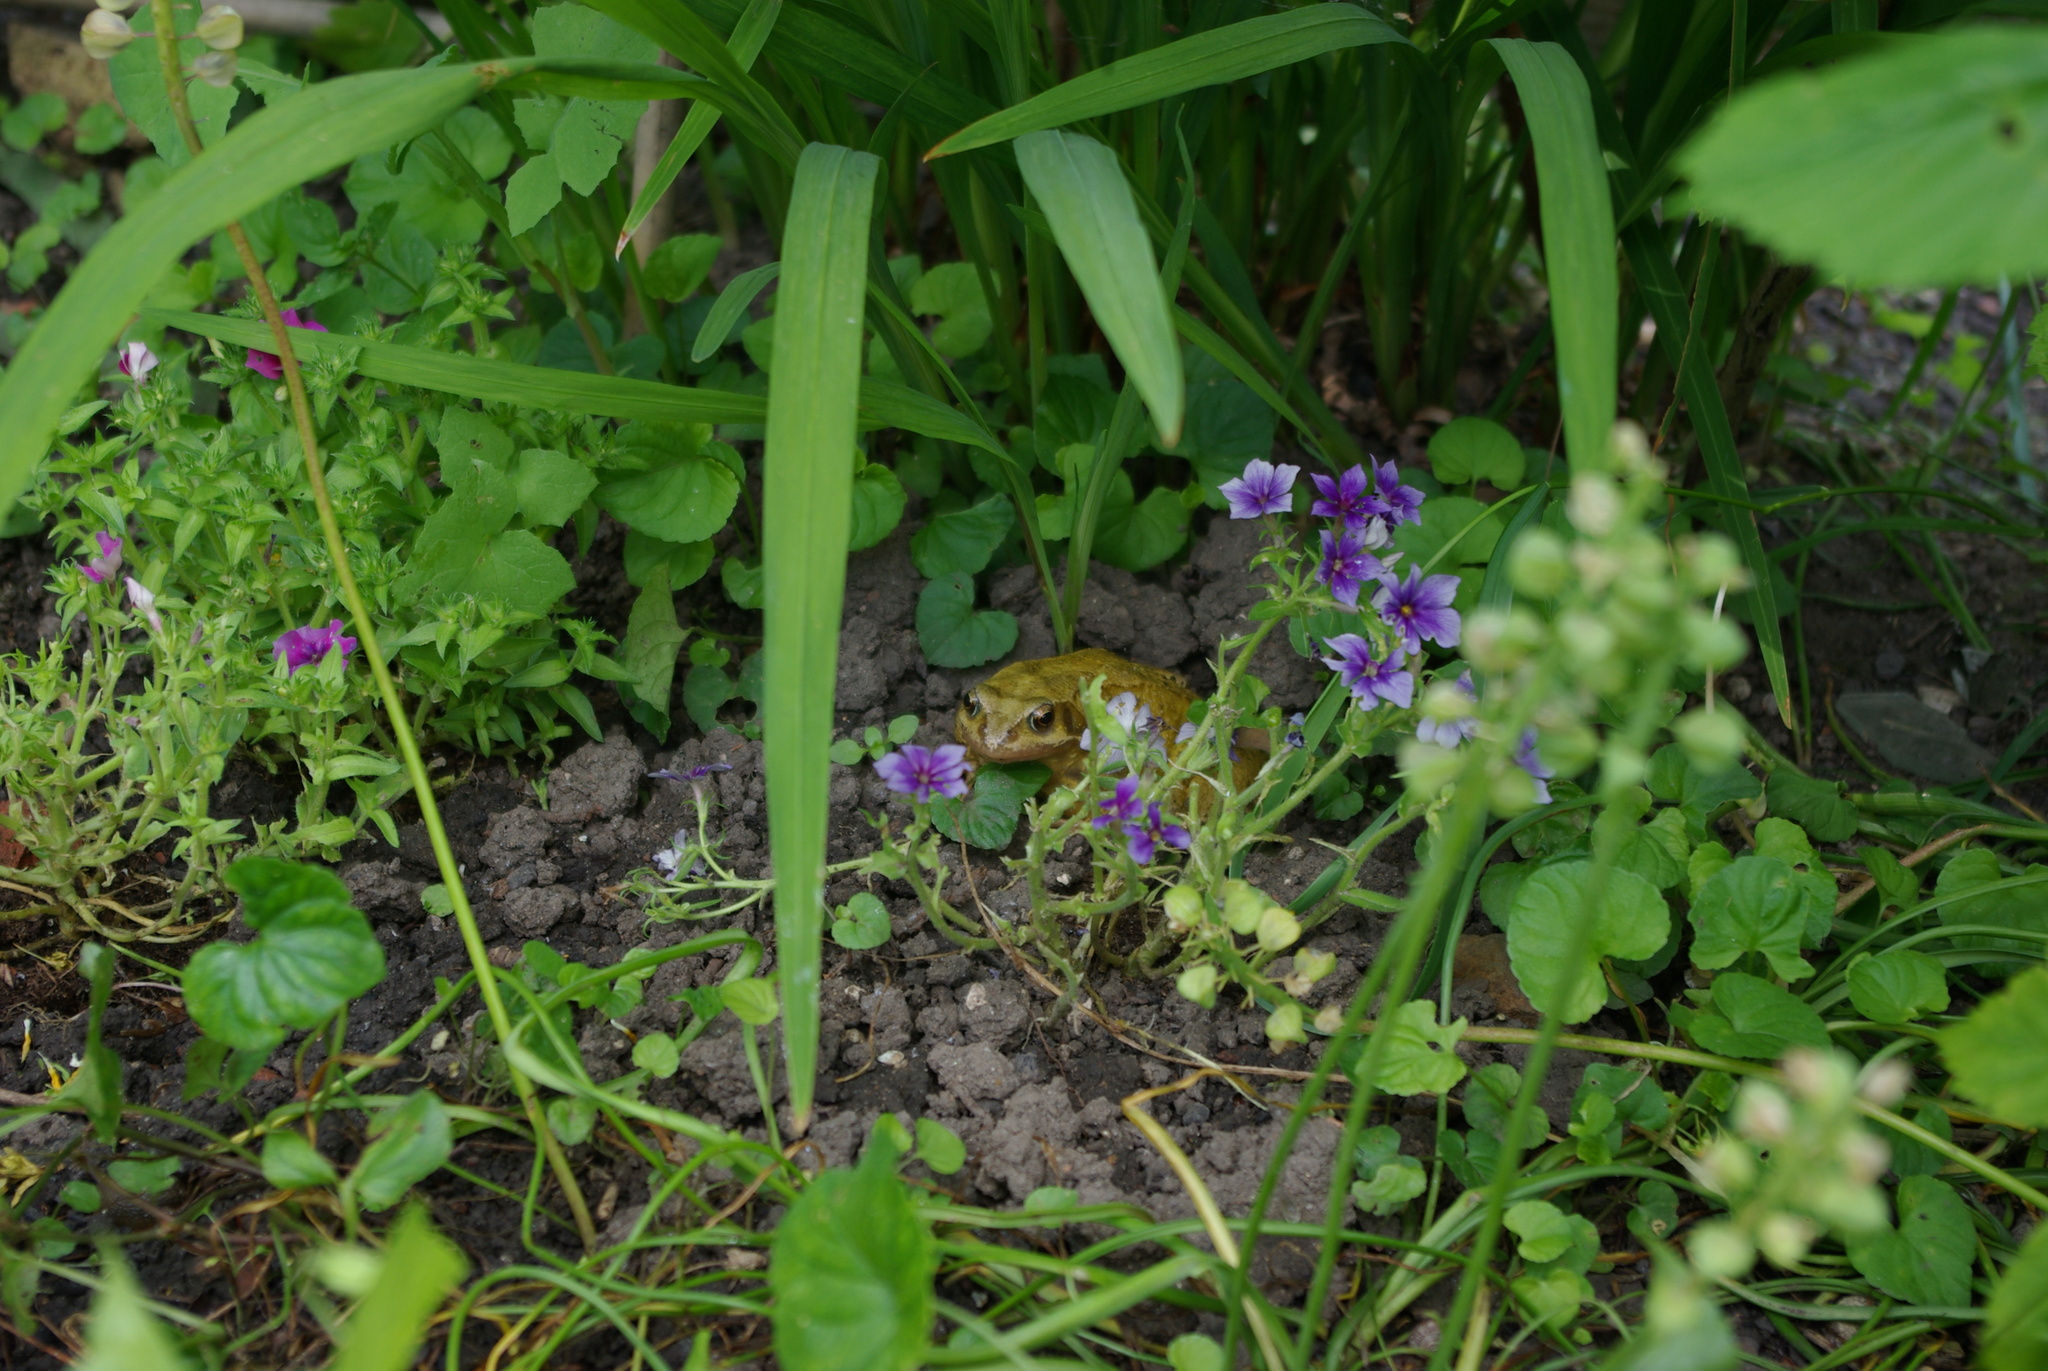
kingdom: Animalia
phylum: Chordata
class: Amphibia
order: Anura
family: Ranidae
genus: Rana
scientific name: Rana temporaria
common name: Common frog
